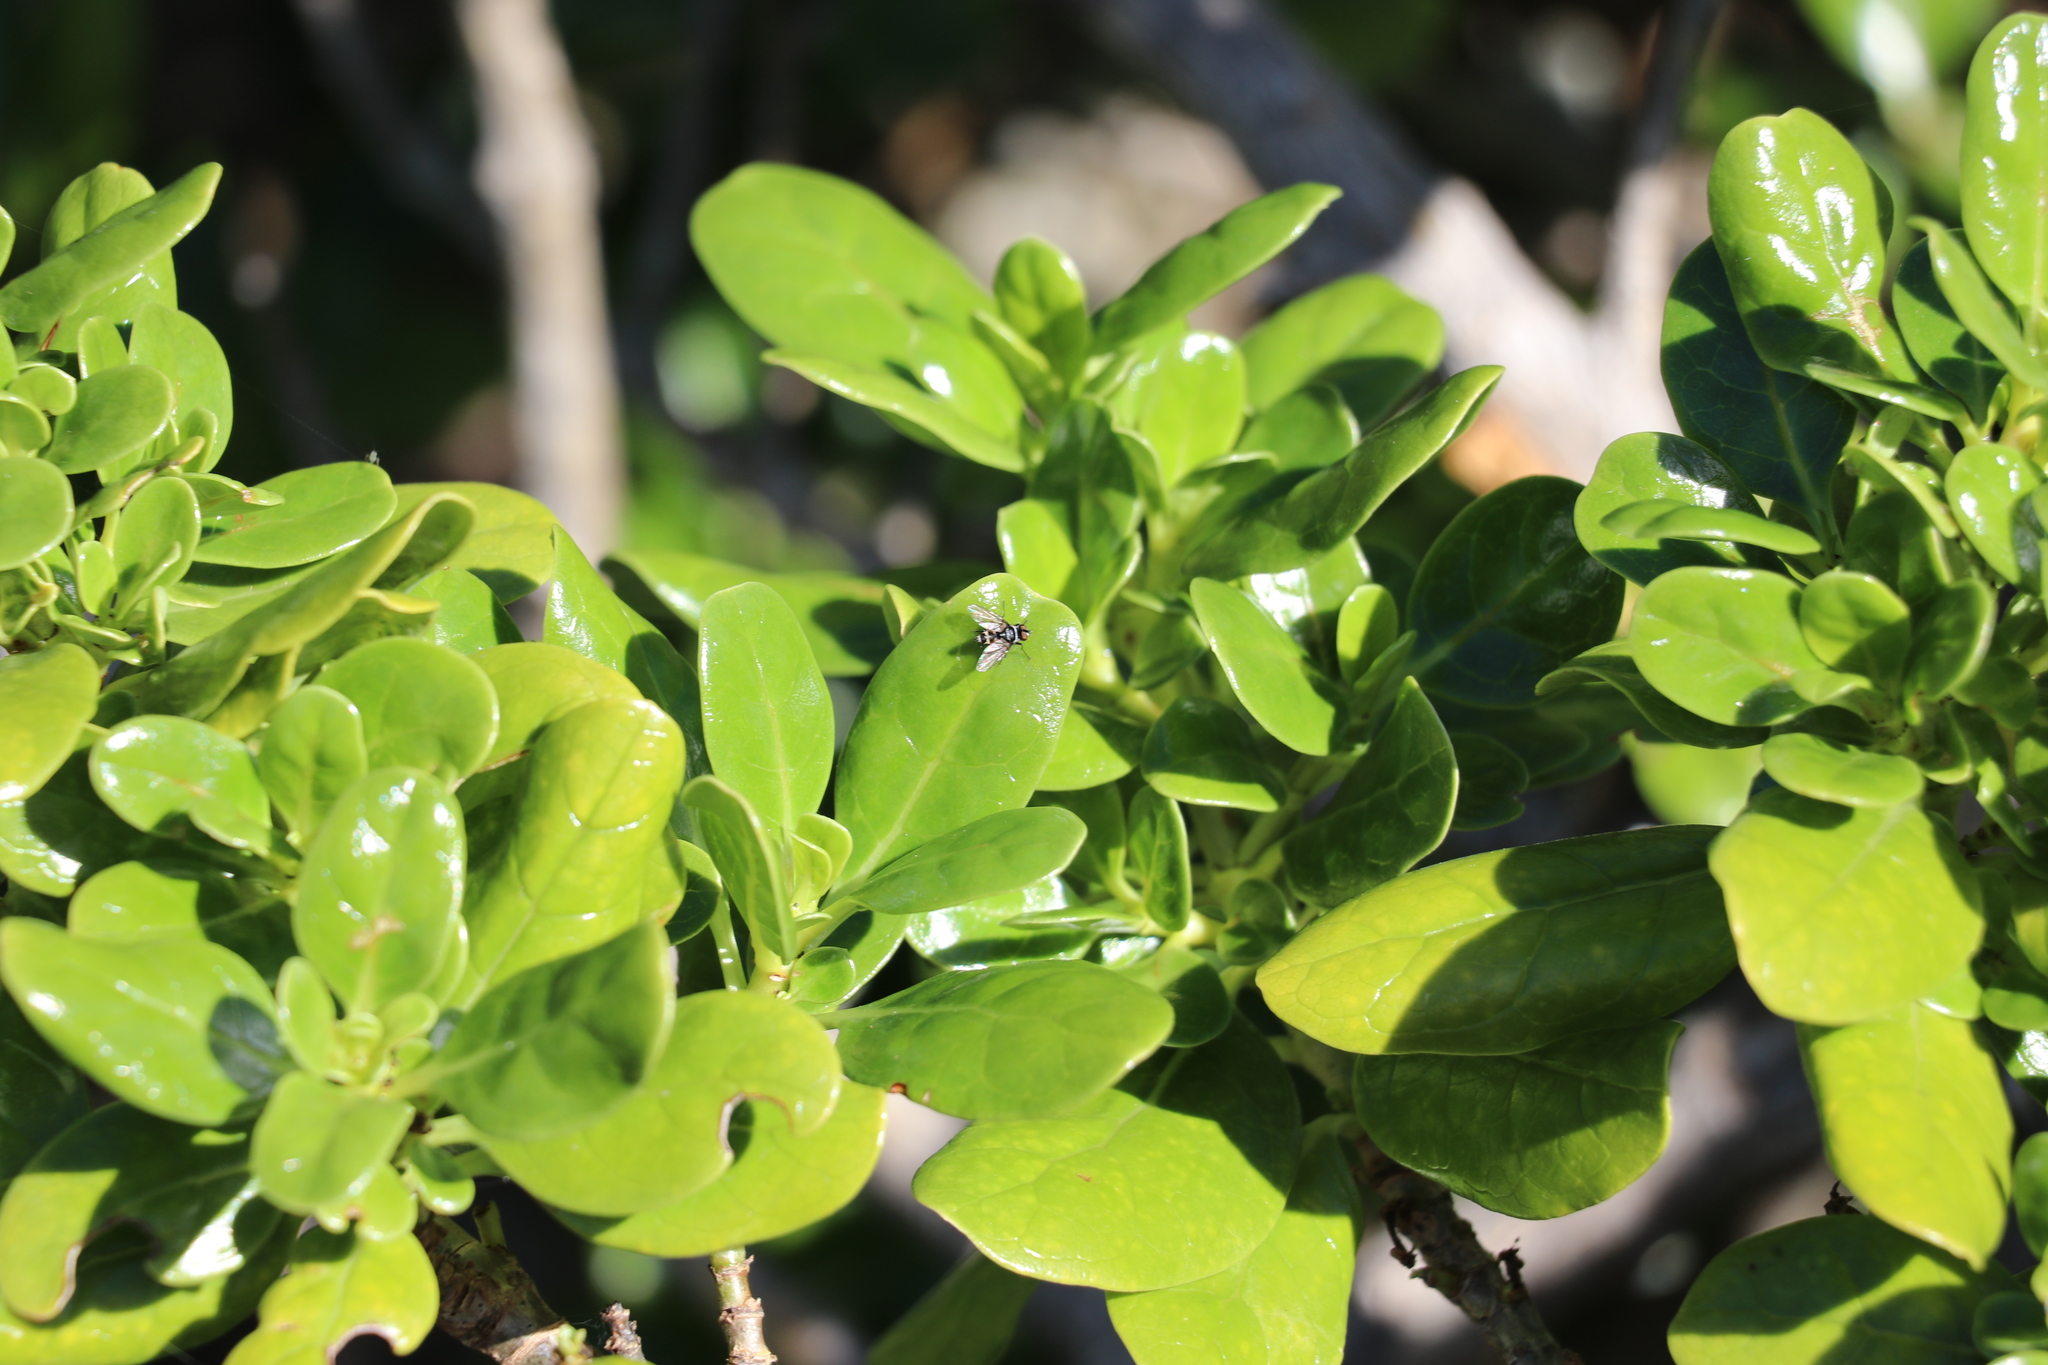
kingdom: Animalia
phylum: Arthropoda
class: Insecta
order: Diptera
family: Tachinidae
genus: Trigonospila
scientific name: Trigonospila brevifacies
